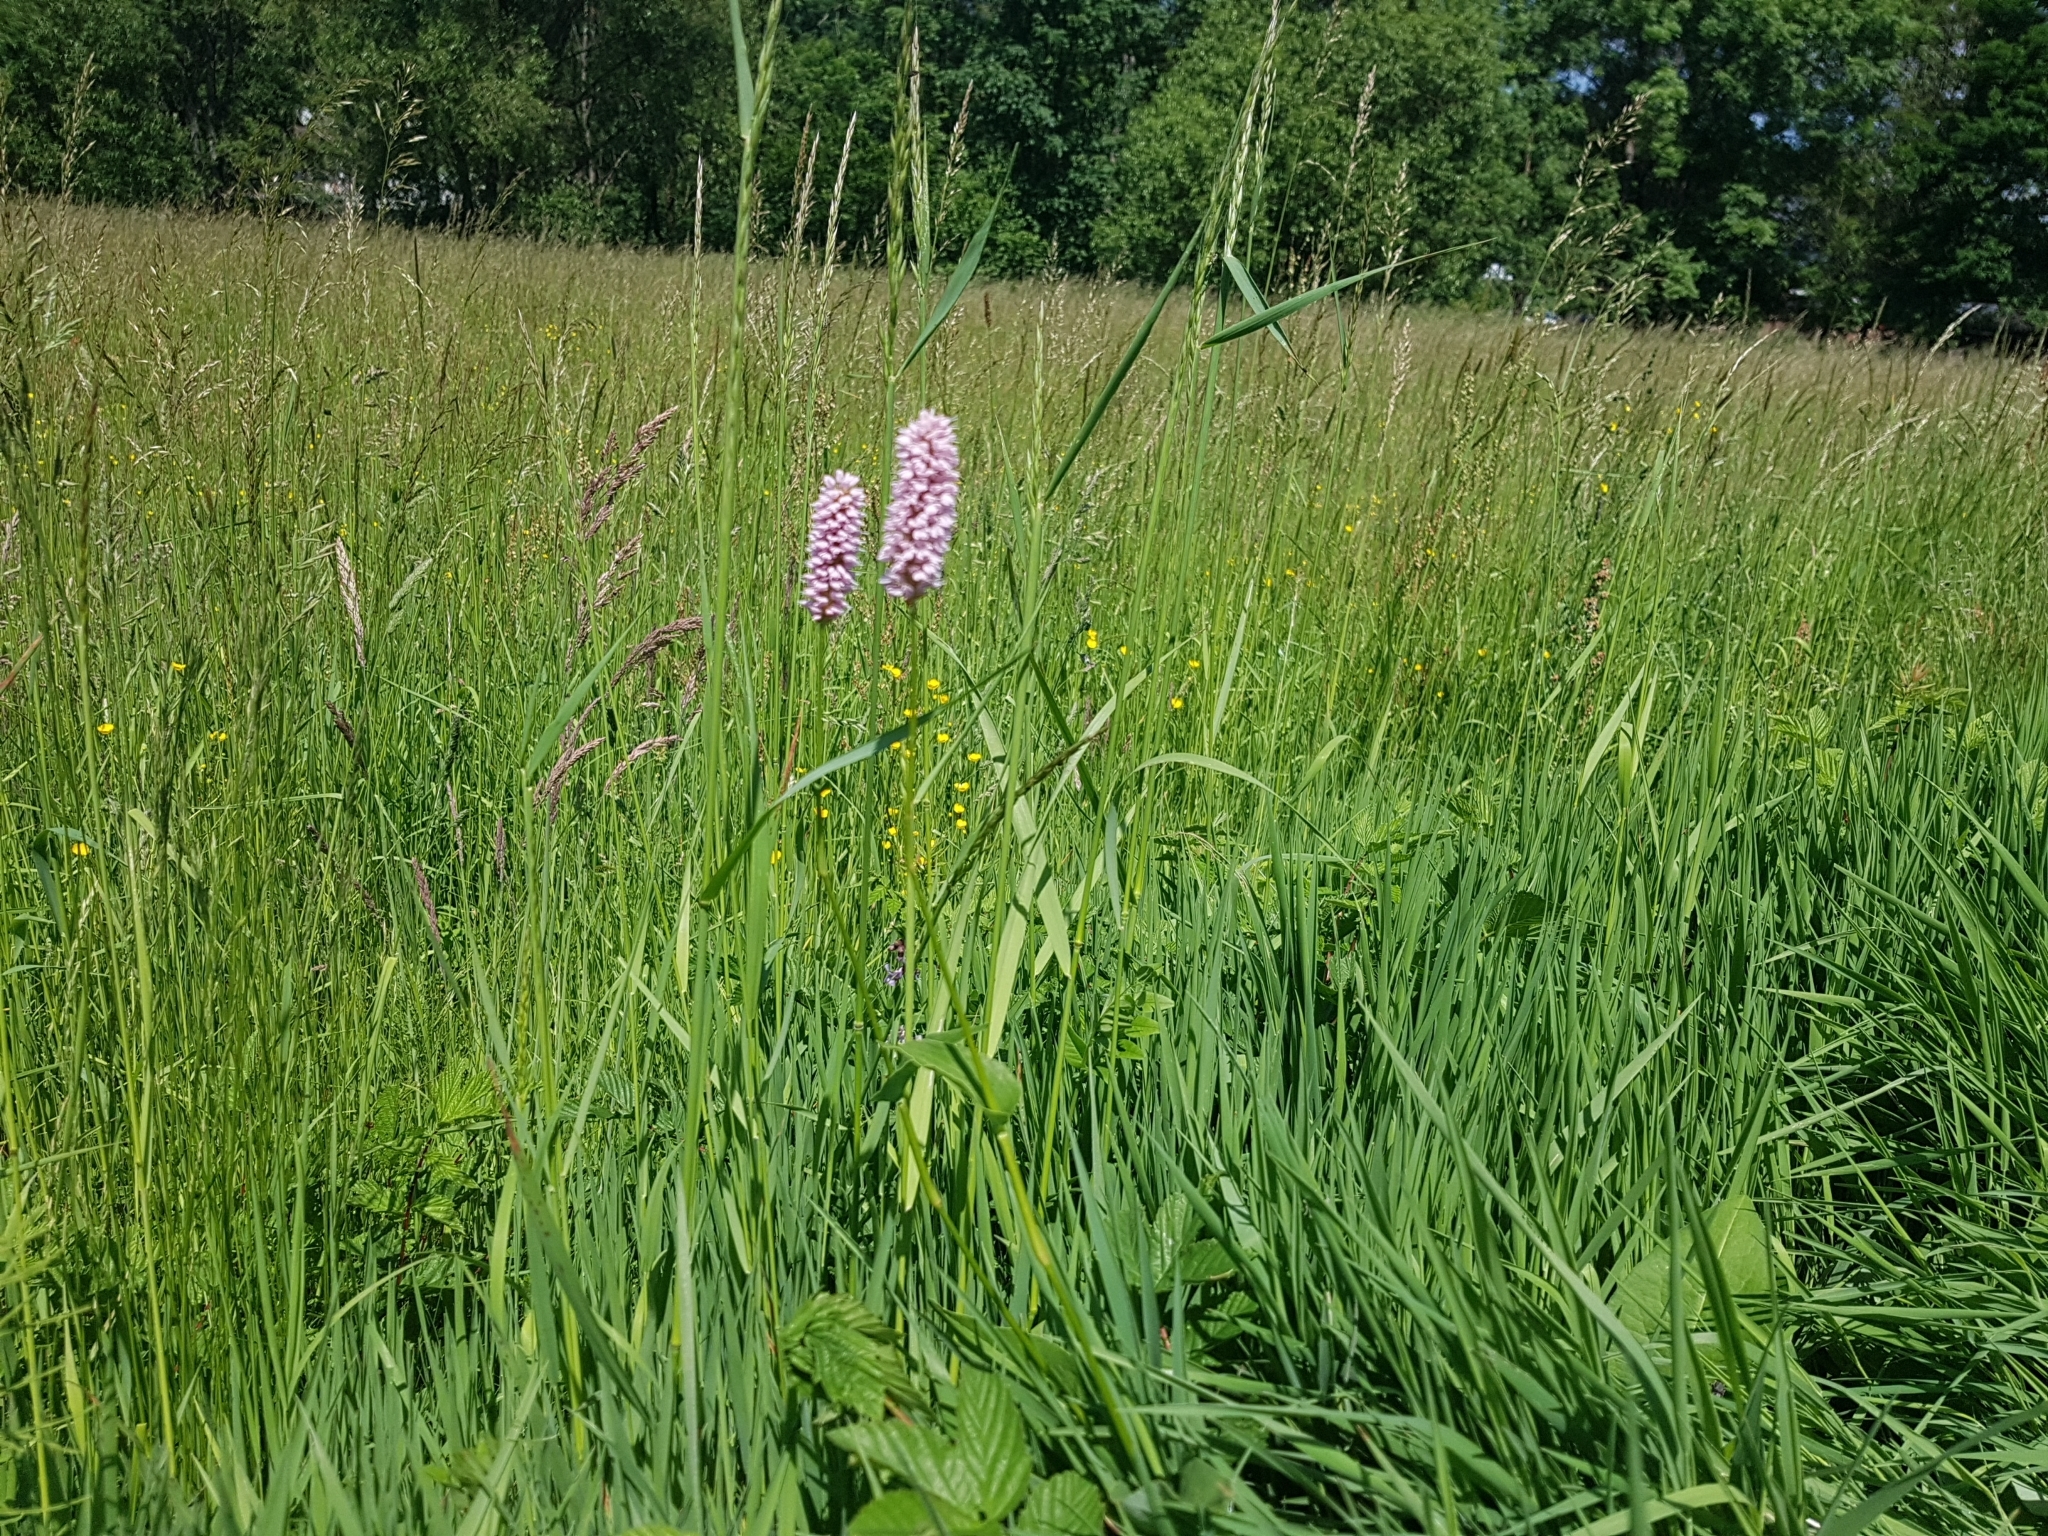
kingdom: Plantae
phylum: Tracheophyta
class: Magnoliopsida
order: Caryophyllales
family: Polygonaceae
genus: Bistorta
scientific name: Bistorta officinalis
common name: Common bistort
